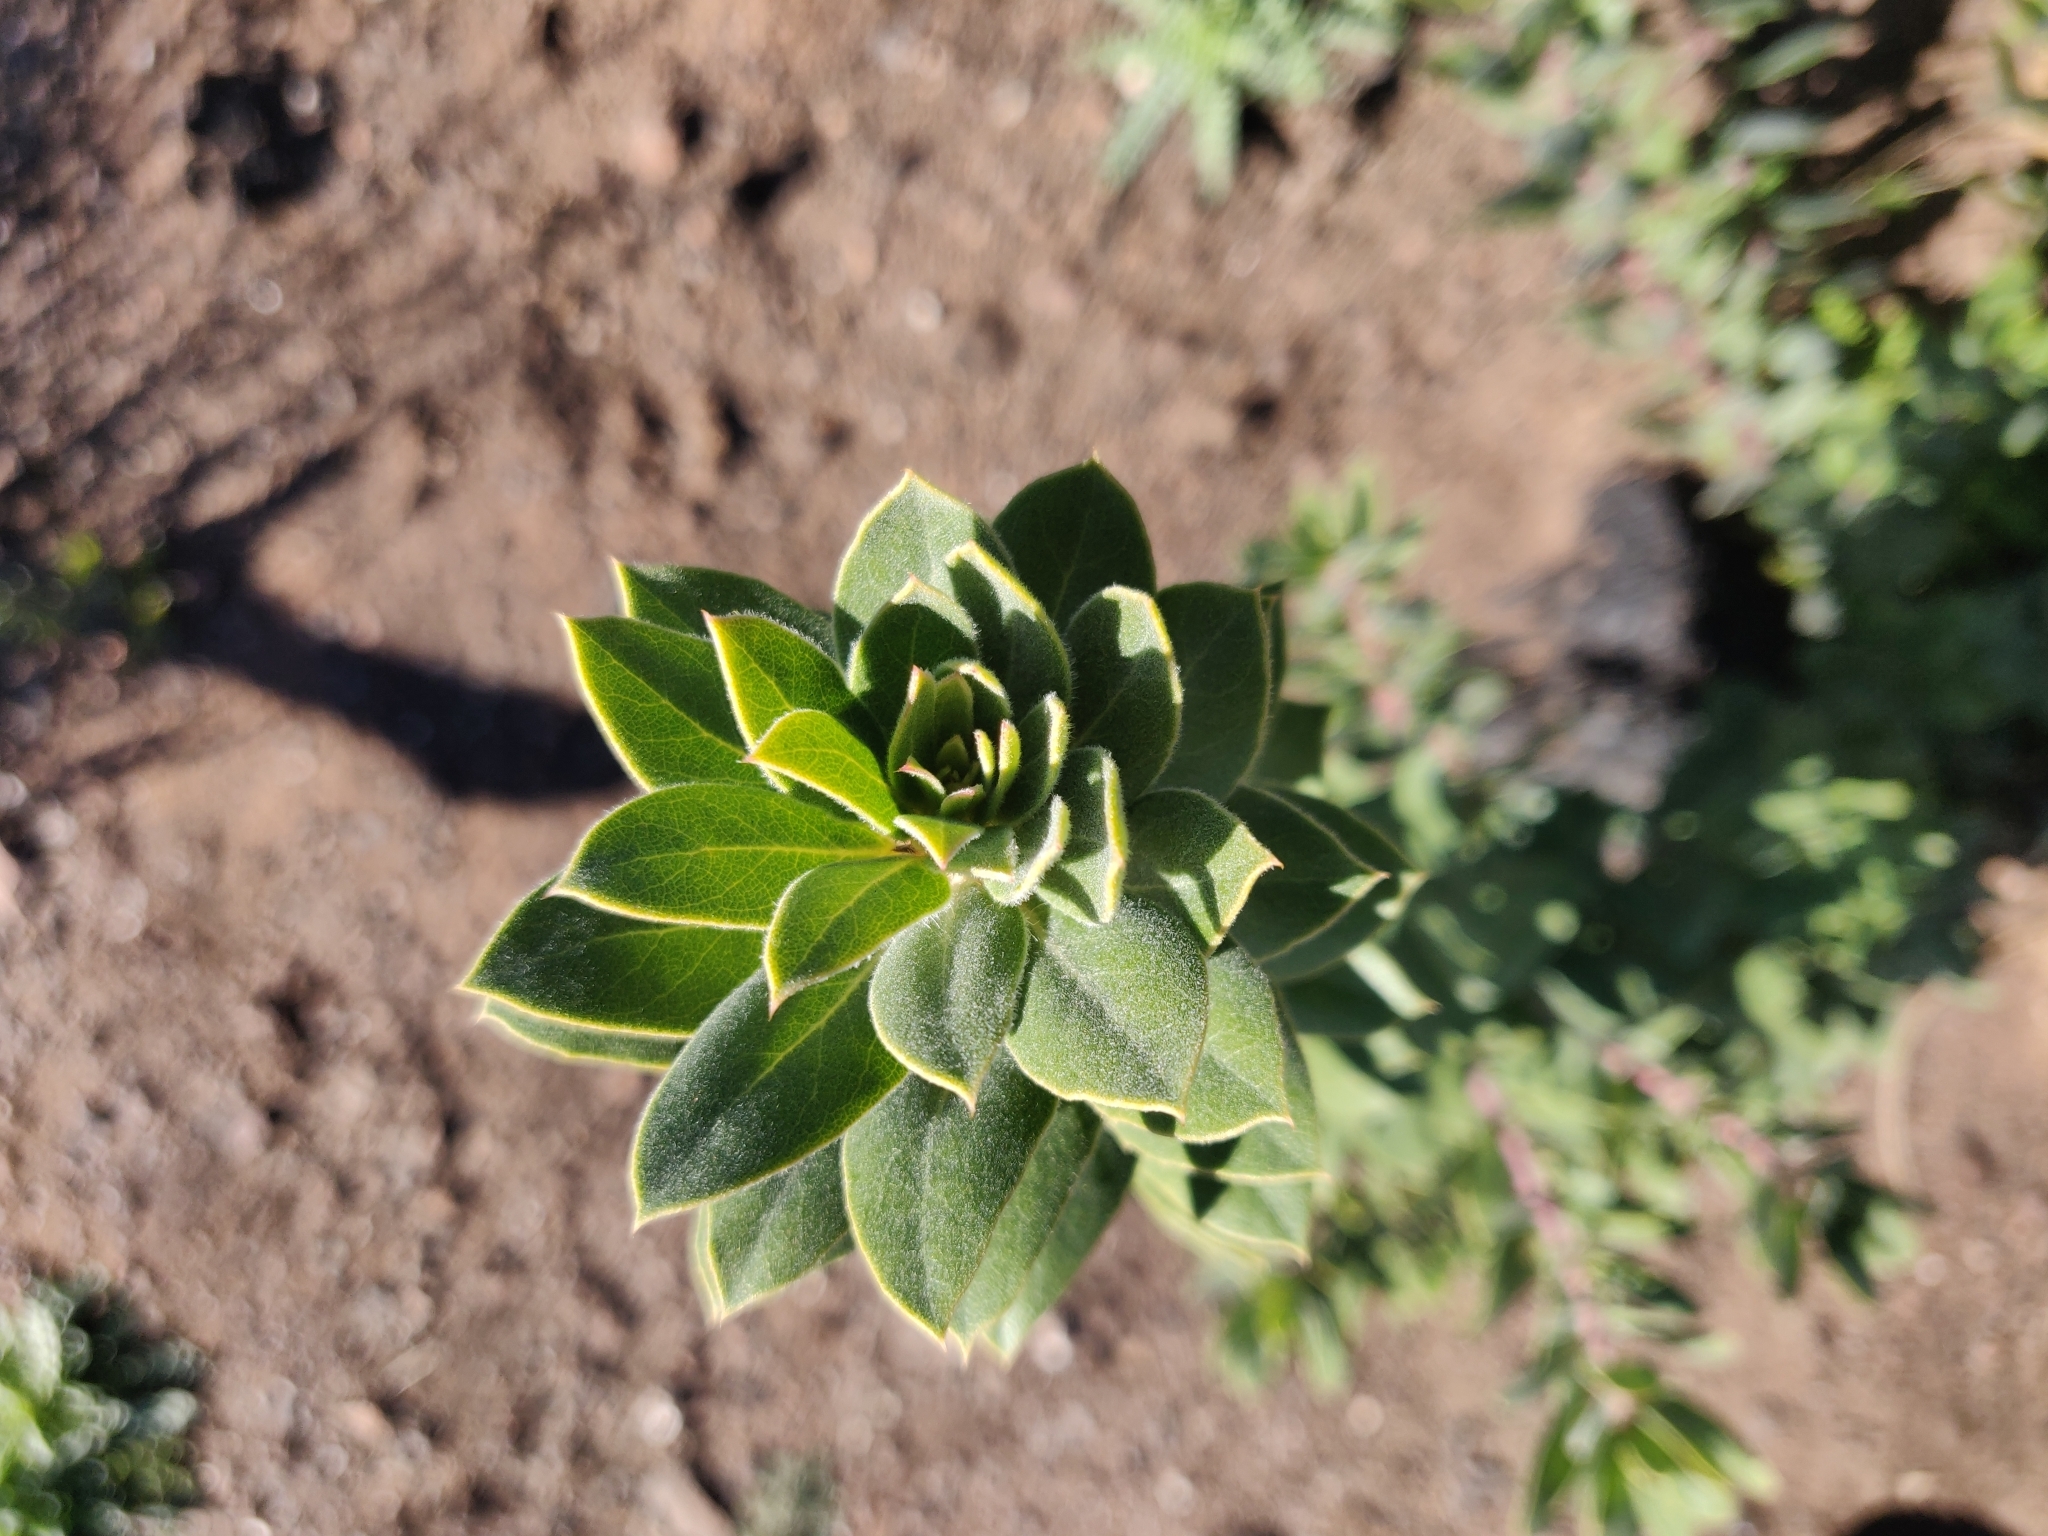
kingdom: Plantae
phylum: Tracheophyta
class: Magnoliopsida
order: Ericales
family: Ericaceae
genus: Arctostaphylos
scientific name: Arctostaphylos crustacea
